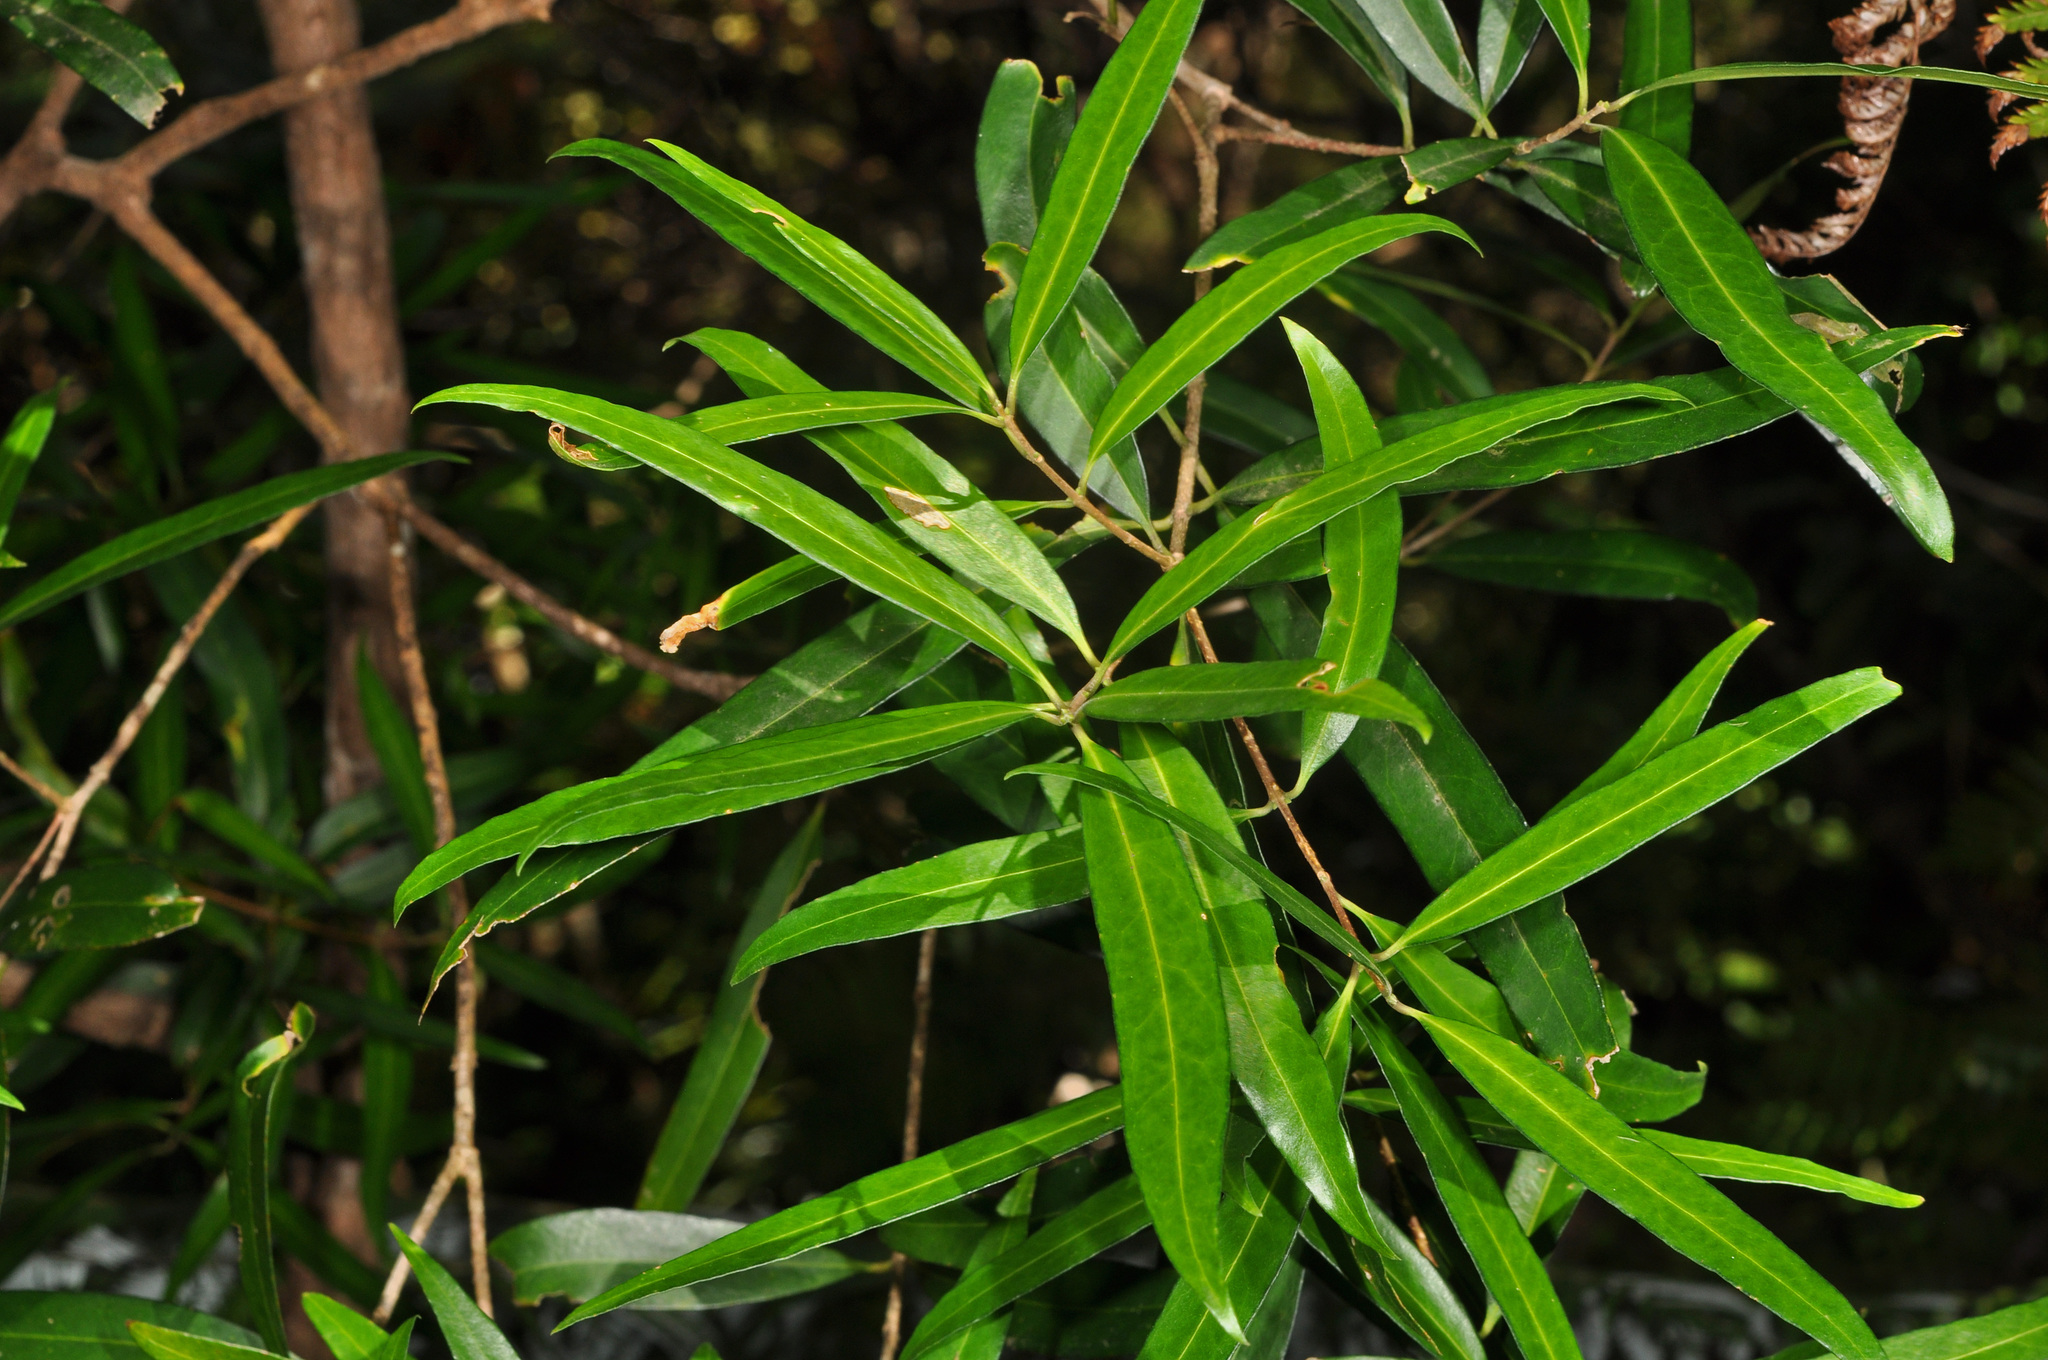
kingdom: Plantae
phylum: Tracheophyta
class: Magnoliopsida
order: Lamiales
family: Oleaceae
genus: Nestegis
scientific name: Nestegis lanceolata
